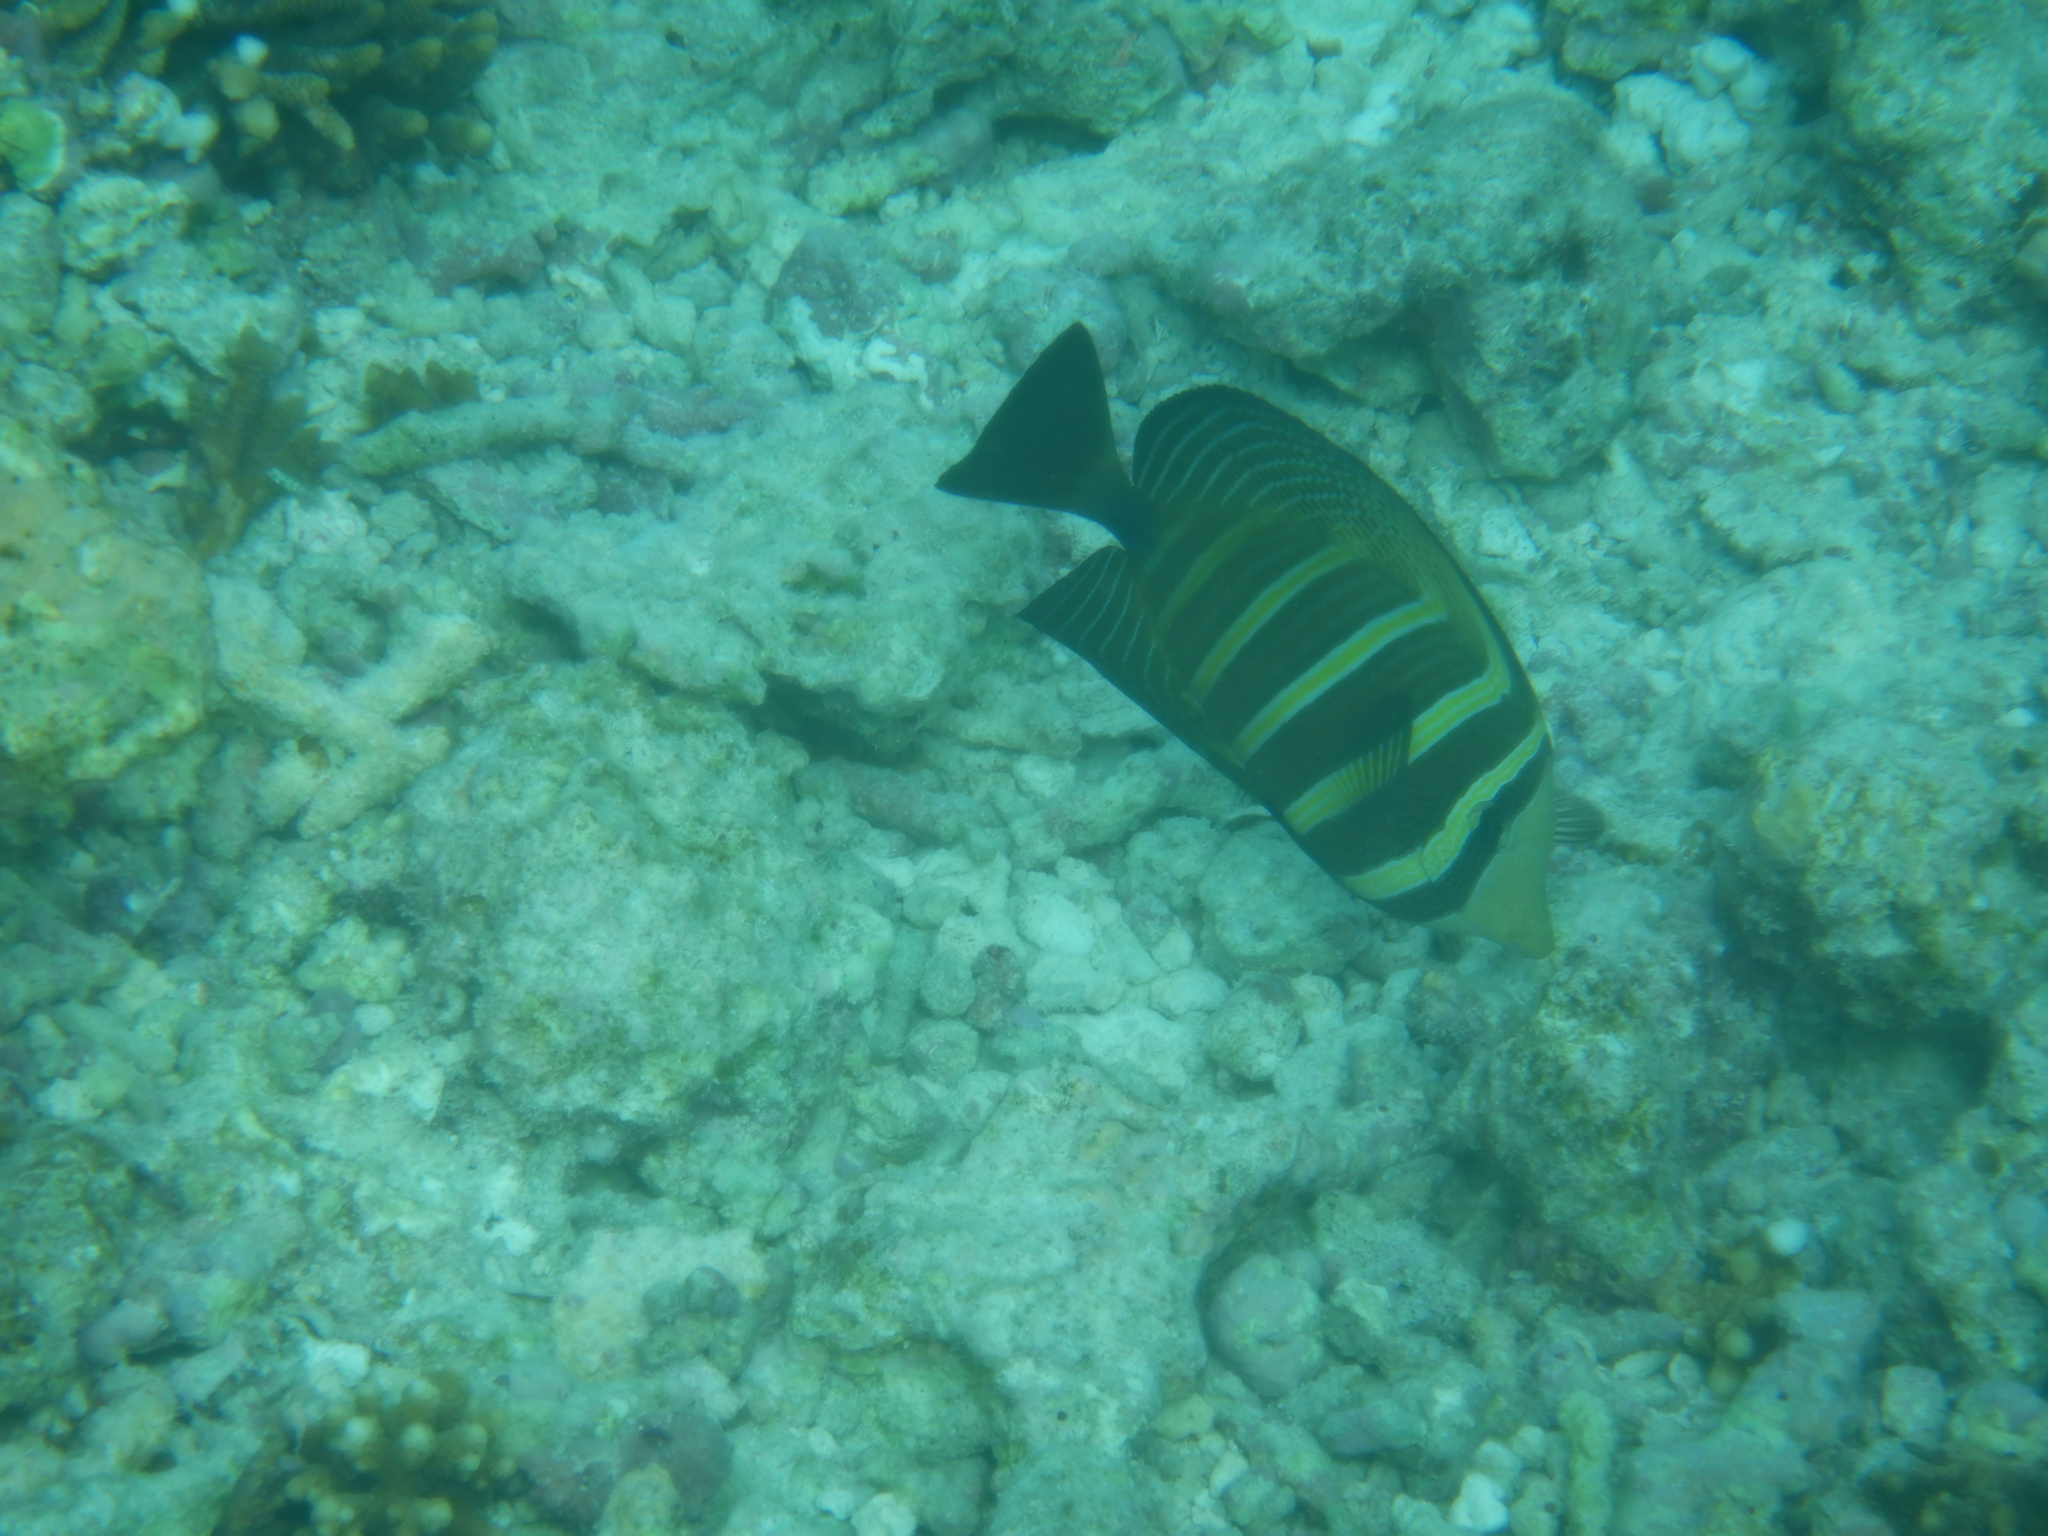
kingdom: Animalia
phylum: Chordata
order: Perciformes
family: Acanthuridae
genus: Zebrasoma
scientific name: Zebrasoma veliferum
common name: Sailfin surgeonfish
